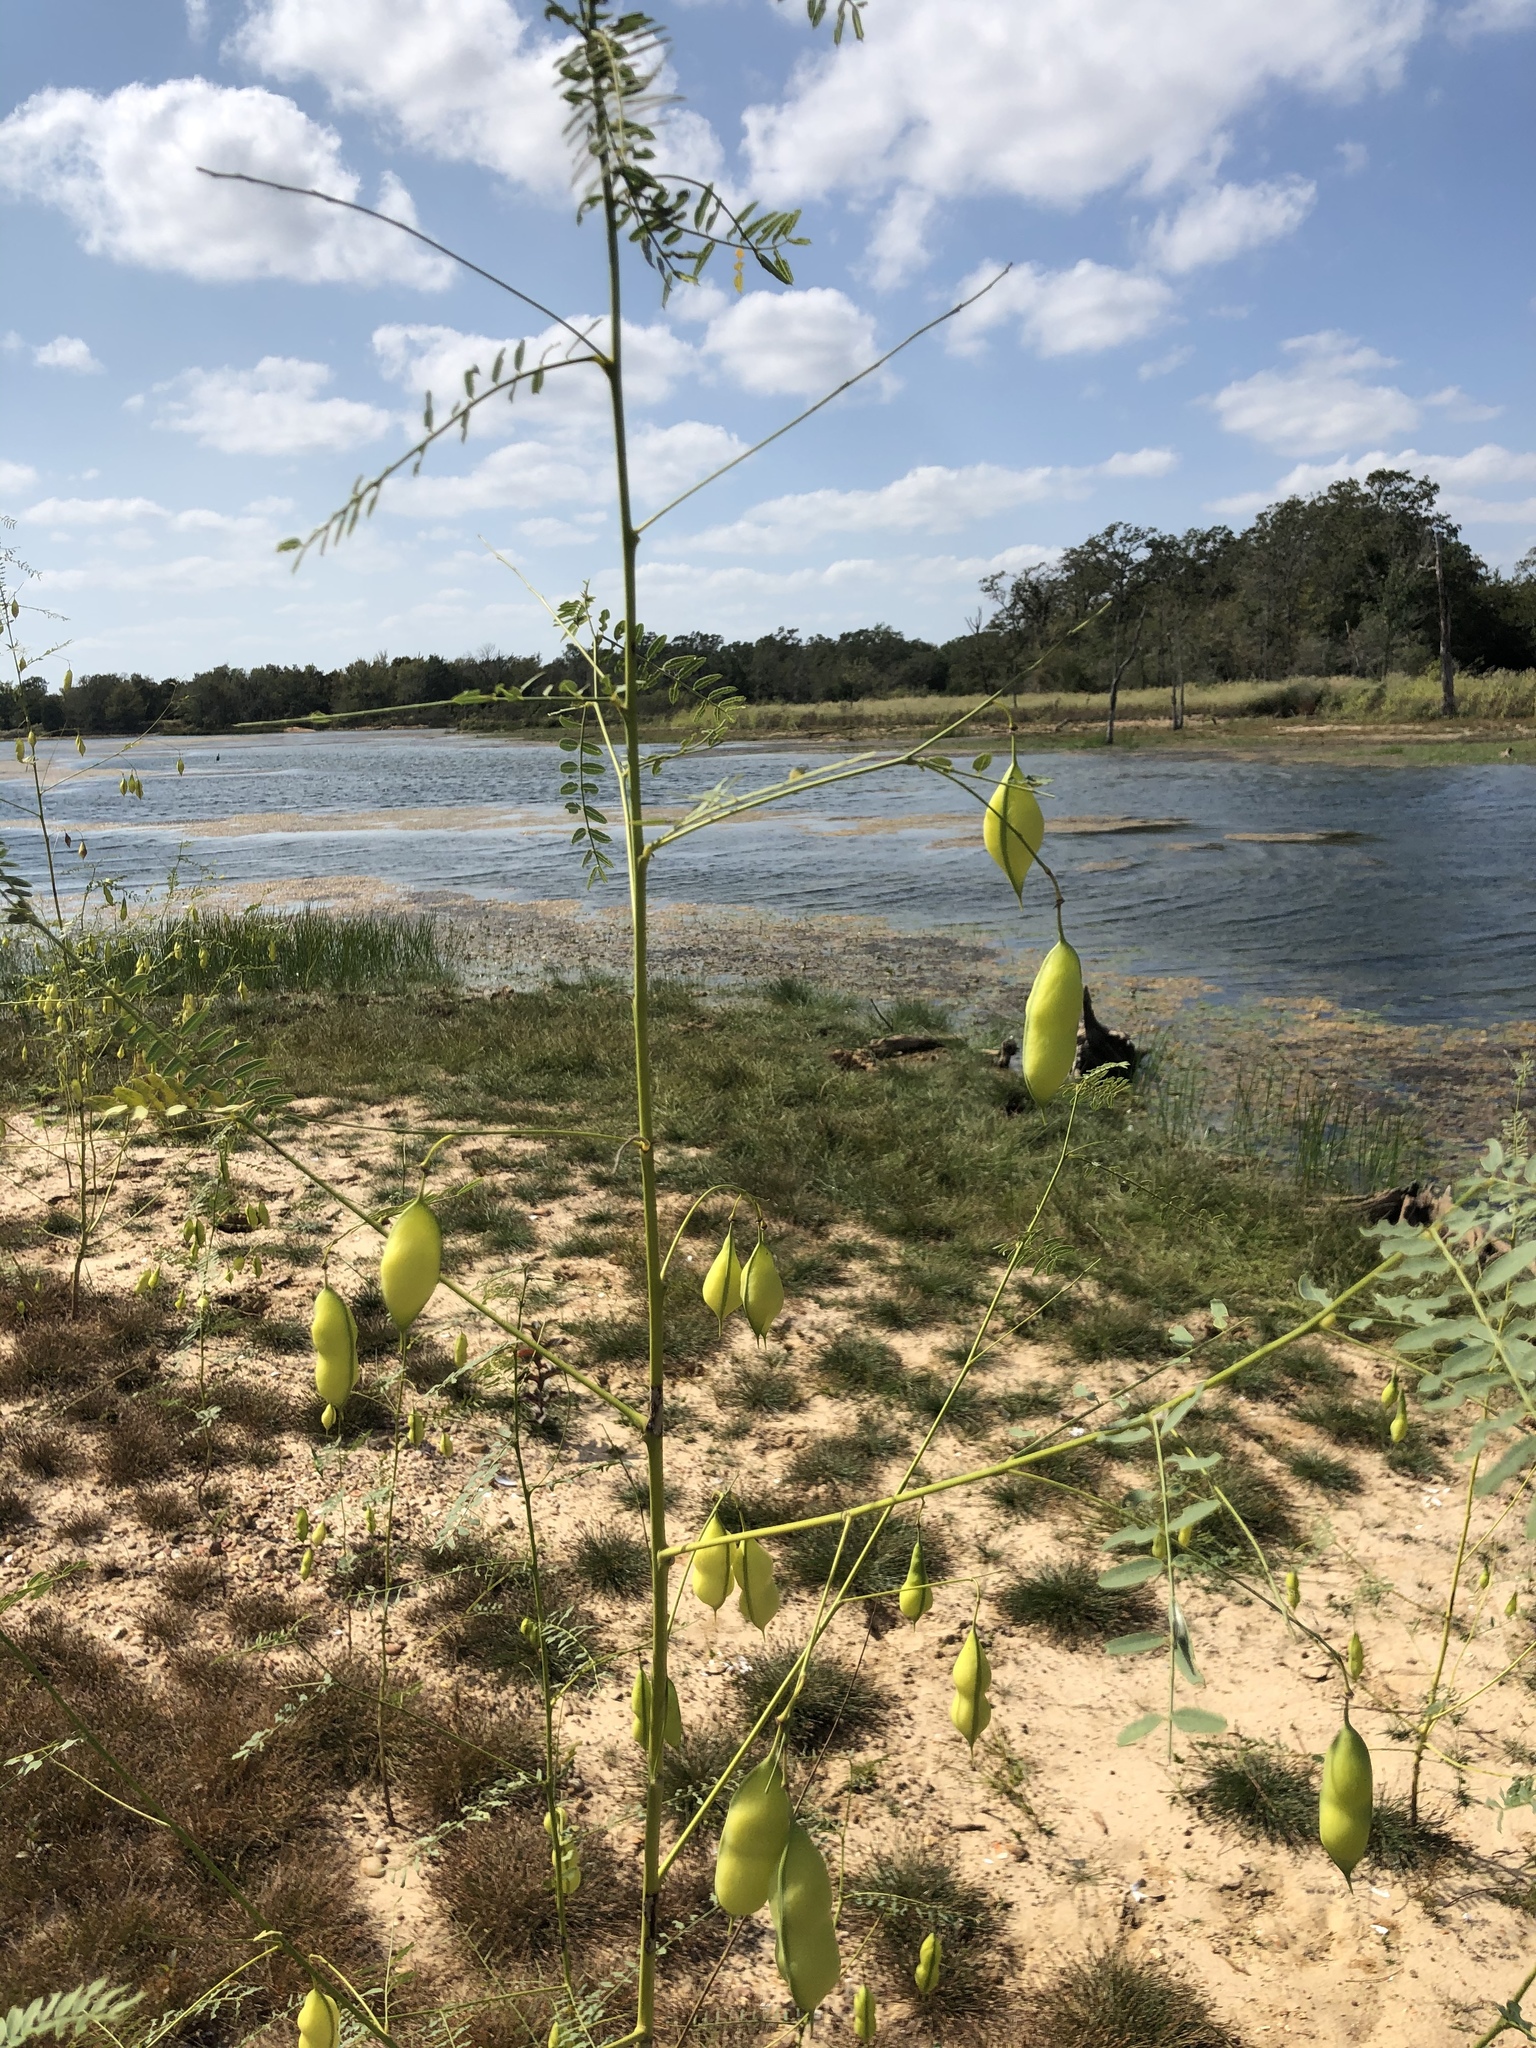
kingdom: Plantae
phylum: Tracheophyta
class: Magnoliopsida
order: Fabales
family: Fabaceae
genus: Sesbania
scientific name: Sesbania vesicaria
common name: Bagpod
